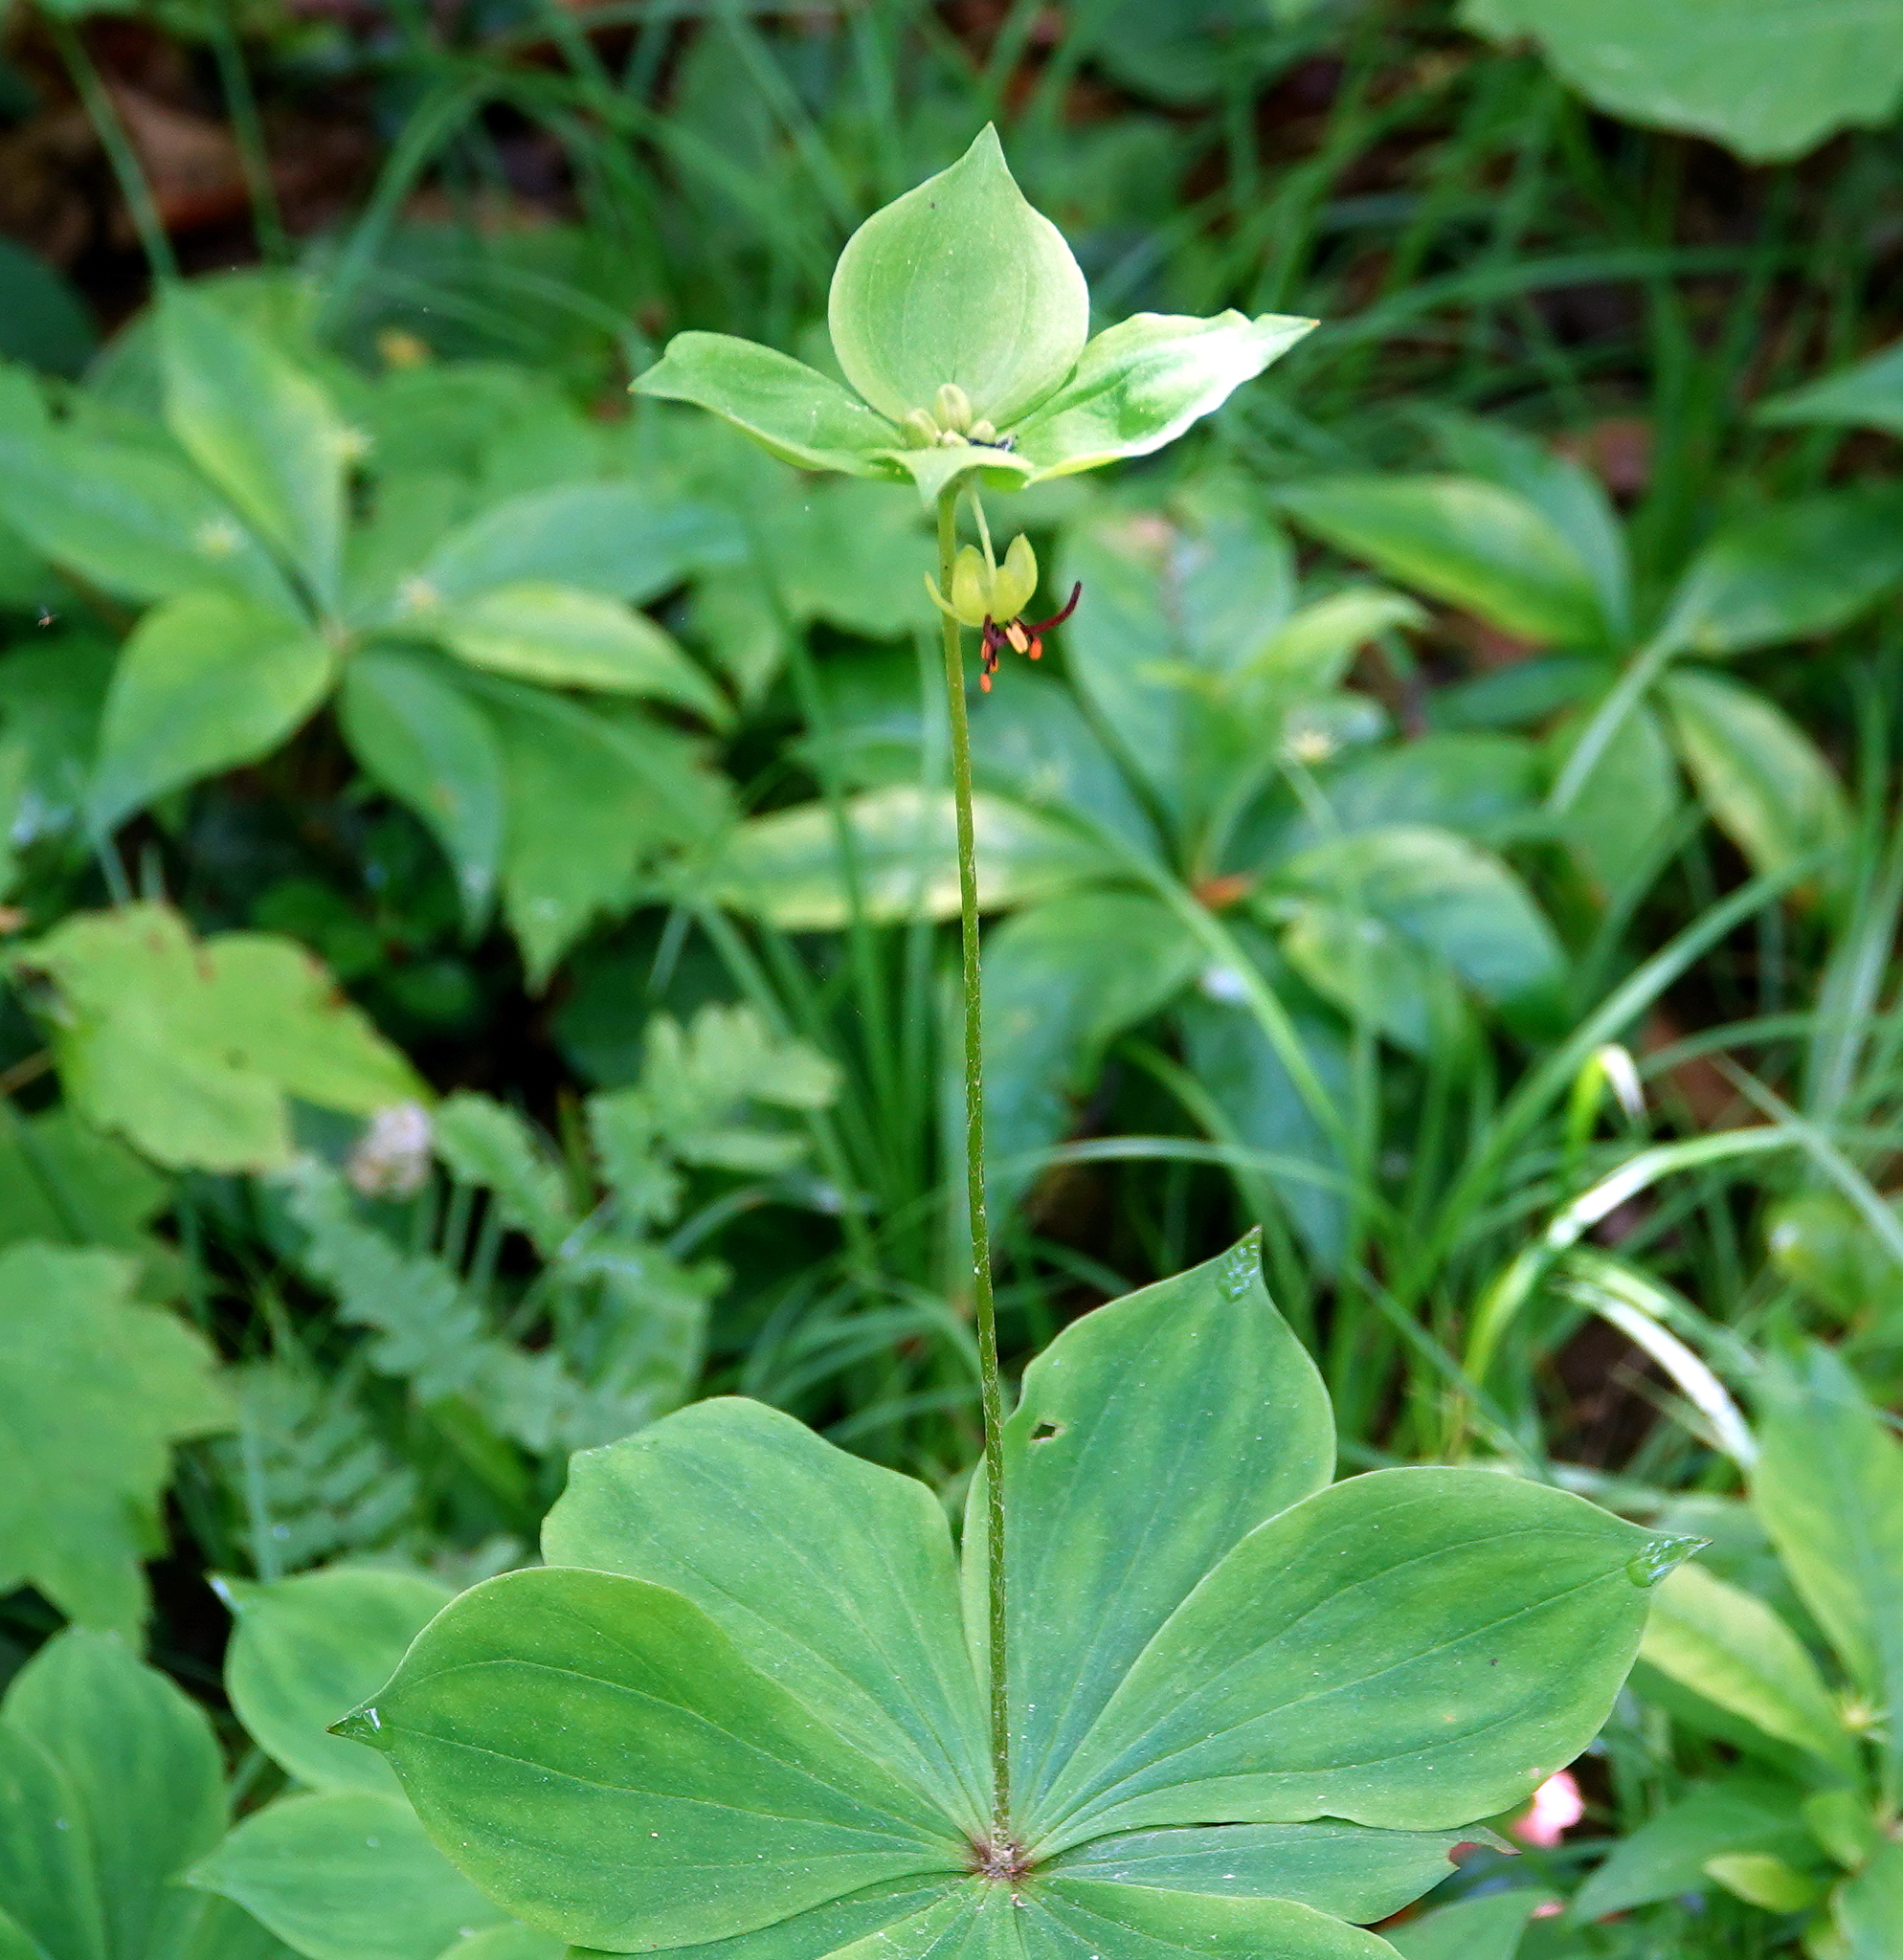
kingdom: Plantae
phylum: Tracheophyta
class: Liliopsida
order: Liliales
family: Liliaceae
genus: Medeola
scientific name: Medeola virginiana
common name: Indian cucumber-root
